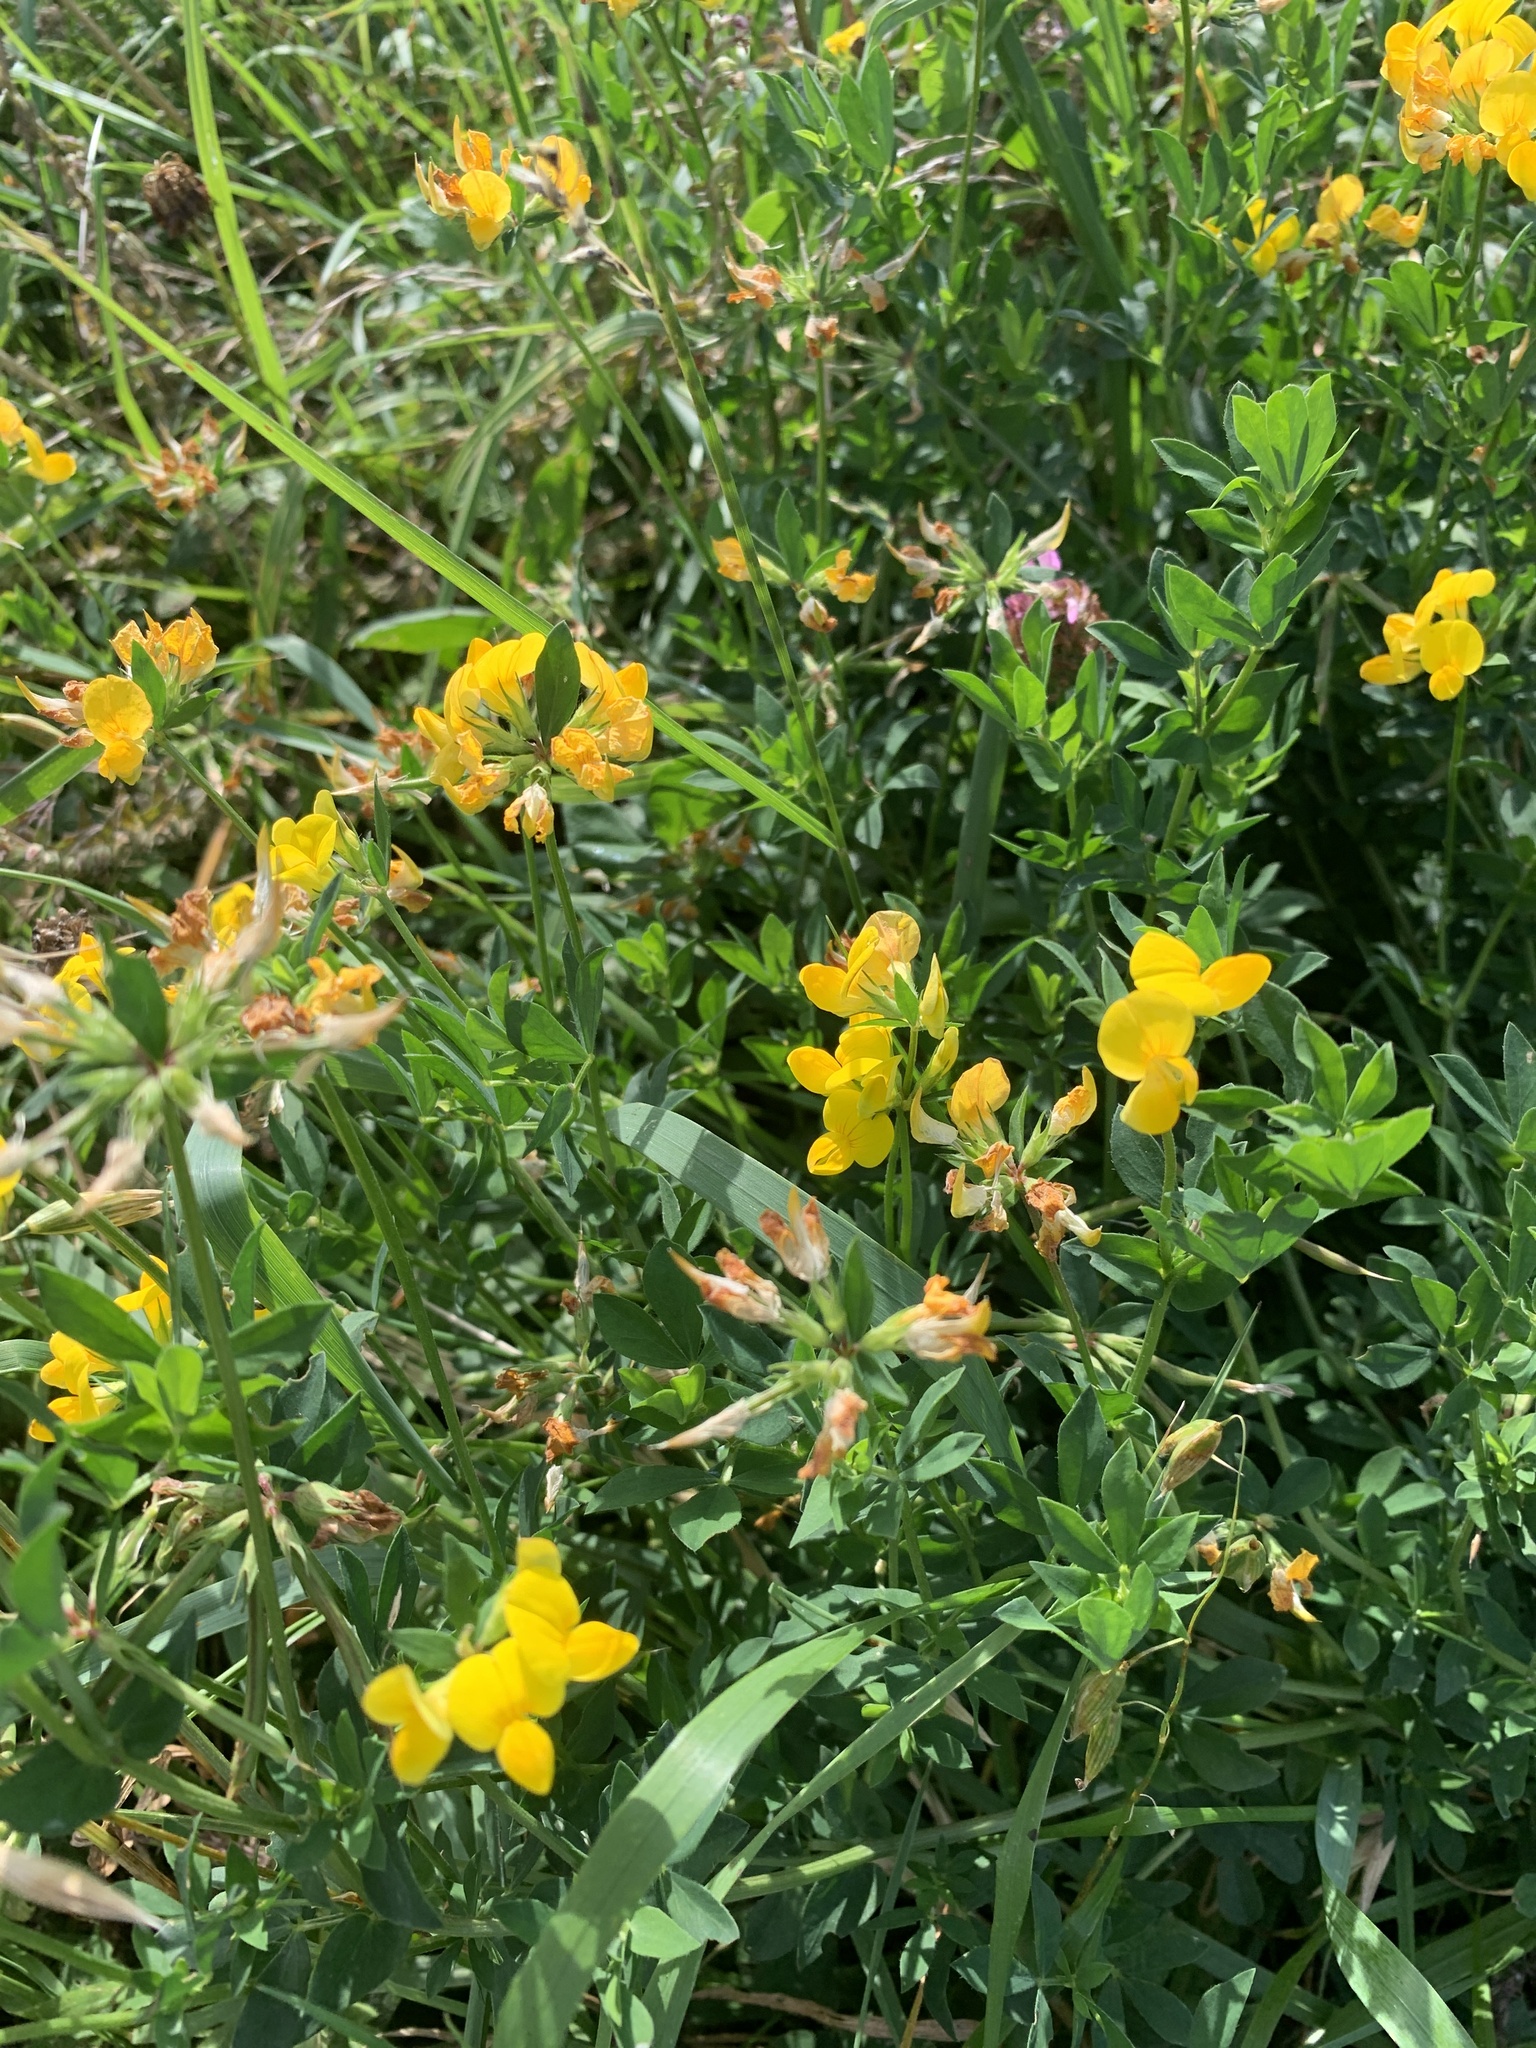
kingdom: Plantae
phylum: Tracheophyta
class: Magnoliopsida
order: Fabales
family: Fabaceae
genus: Lotus
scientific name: Lotus corniculatus
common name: Common bird's-foot-trefoil
